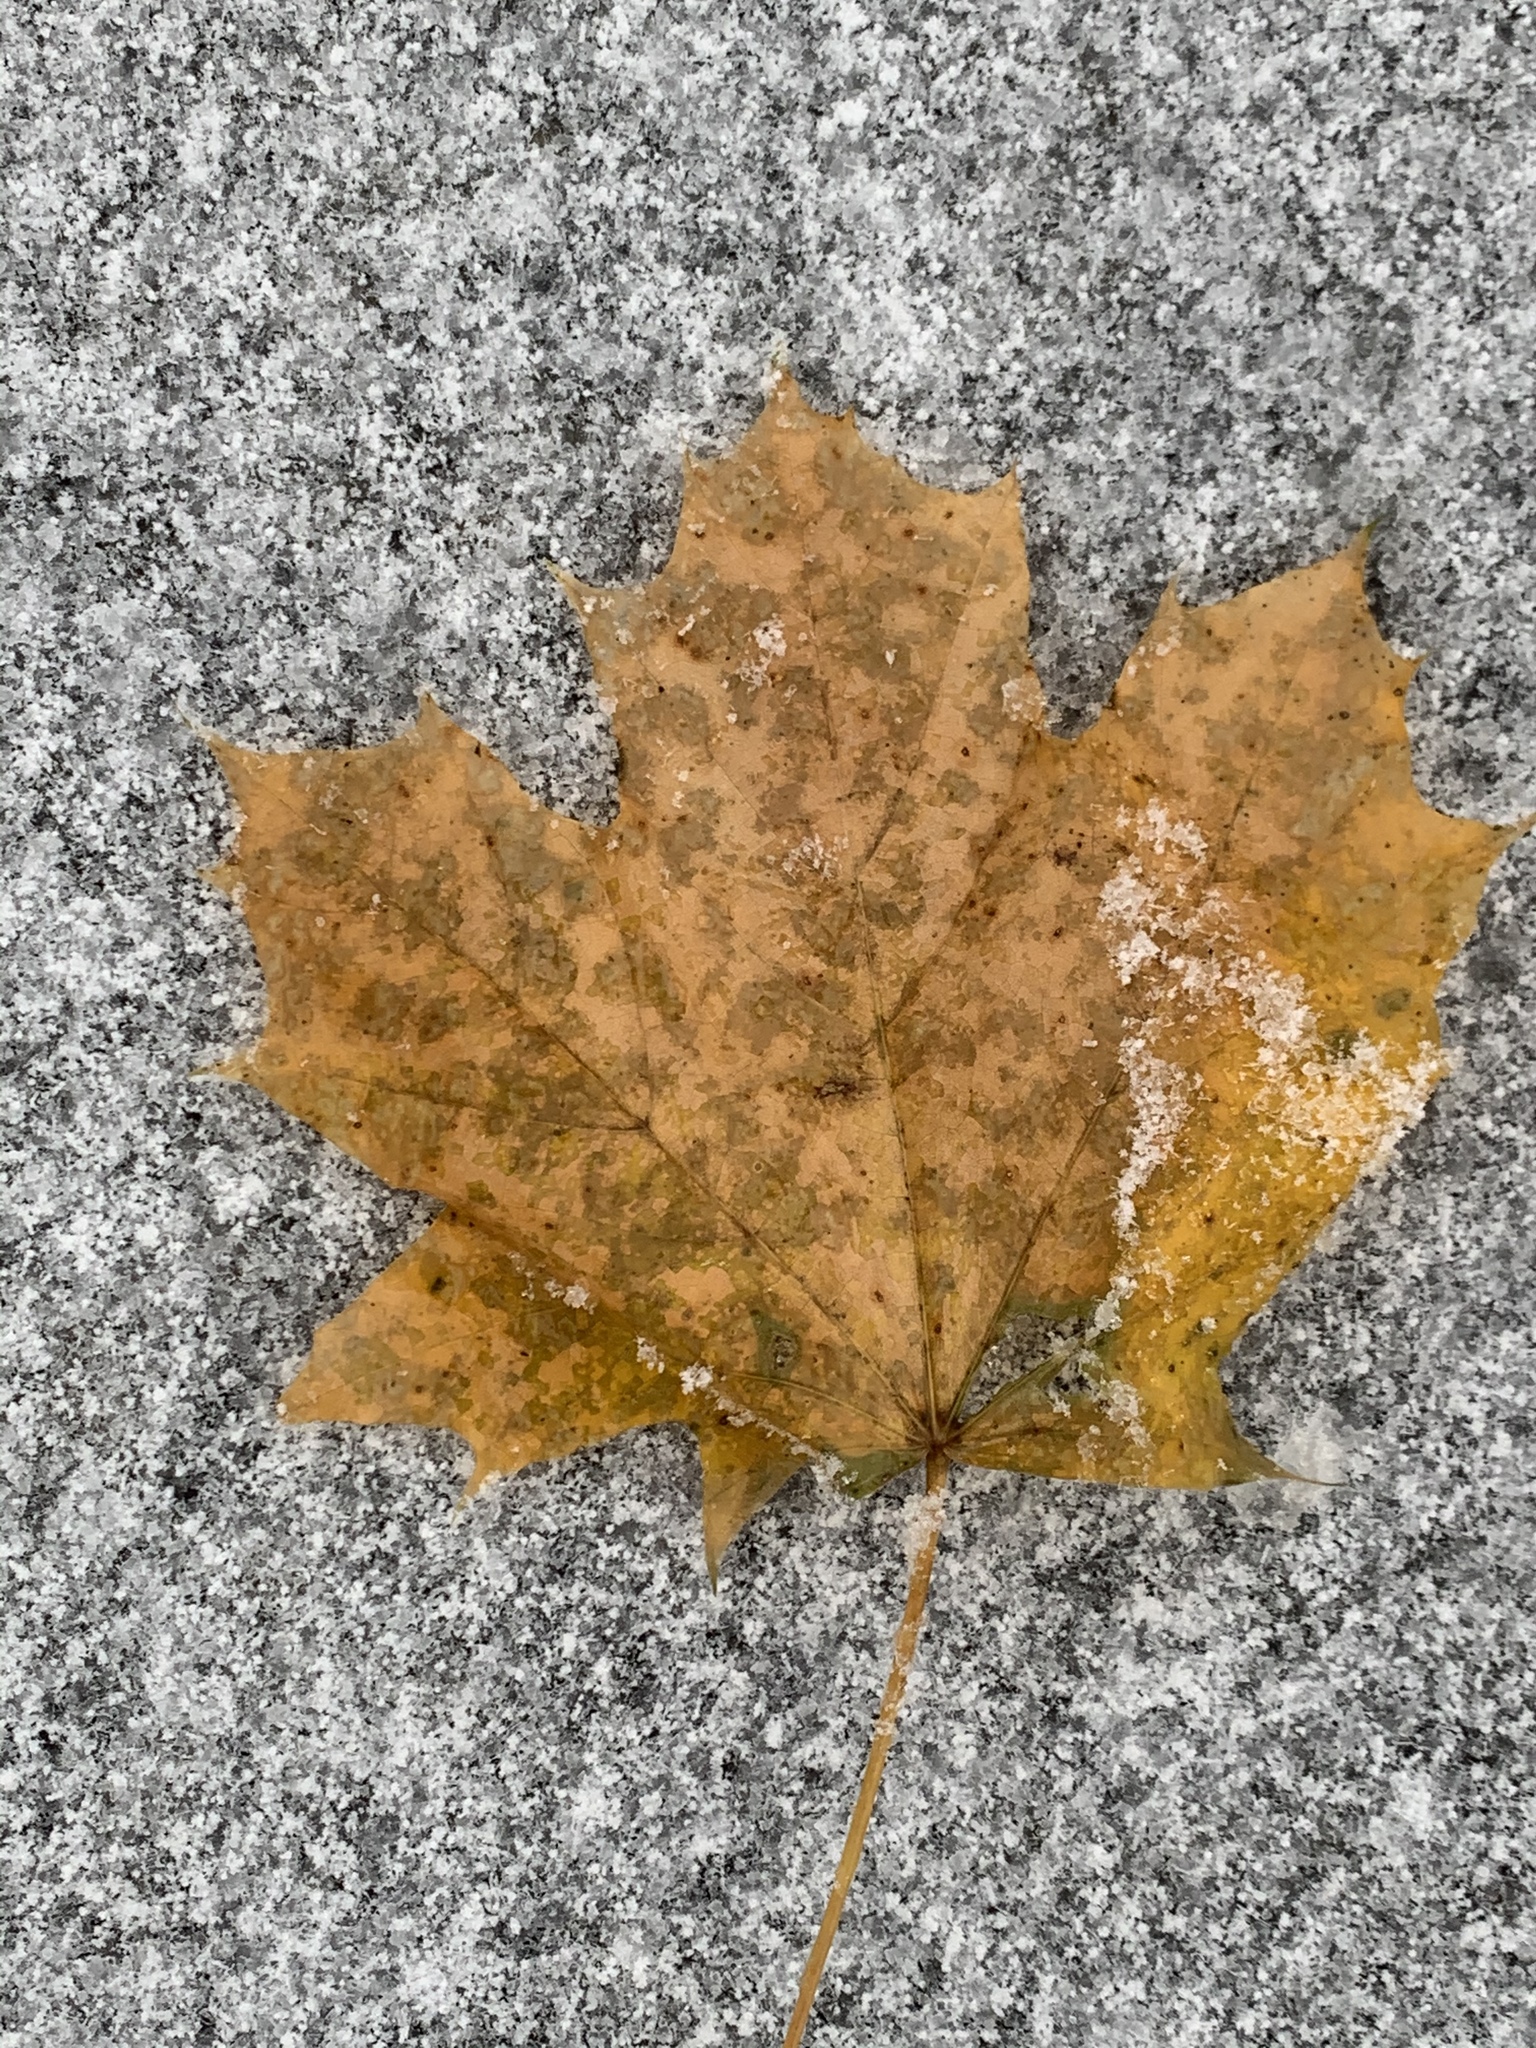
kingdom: Plantae
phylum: Tracheophyta
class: Magnoliopsida
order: Sapindales
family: Sapindaceae
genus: Acer
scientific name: Acer platanoides
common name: Norway maple
